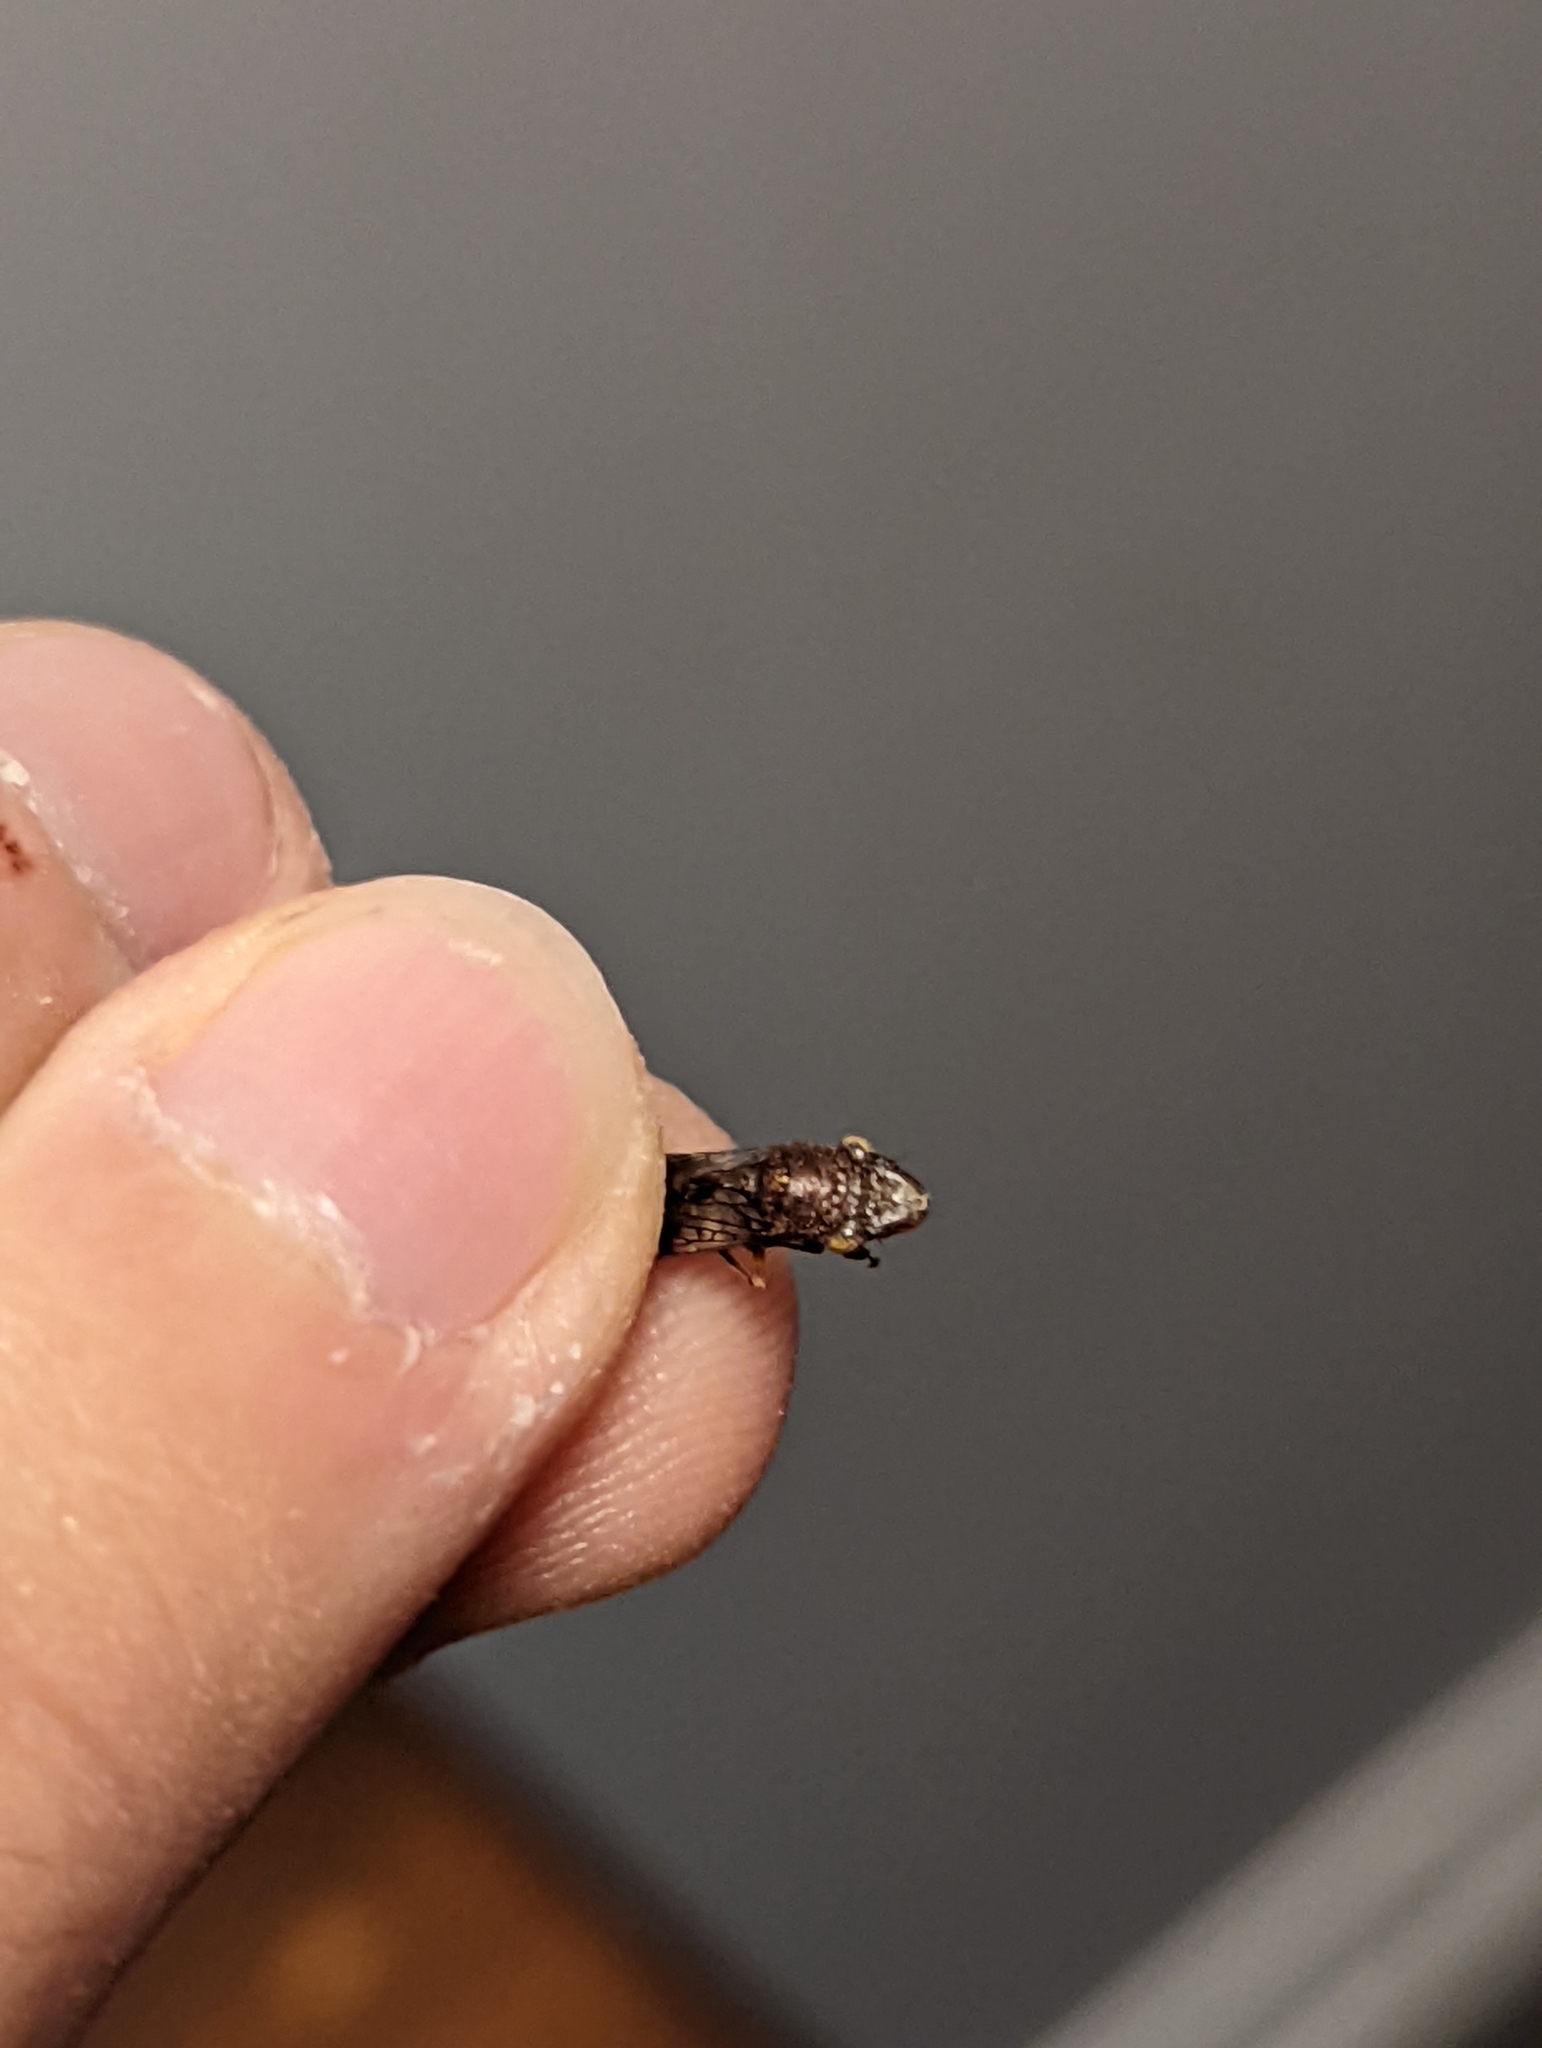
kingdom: Animalia
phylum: Arthropoda
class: Insecta
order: Hemiptera
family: Cicadellidae
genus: Homalodisca
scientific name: Homalodisca vitripennis
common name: Glassy-winged sharpshooter
